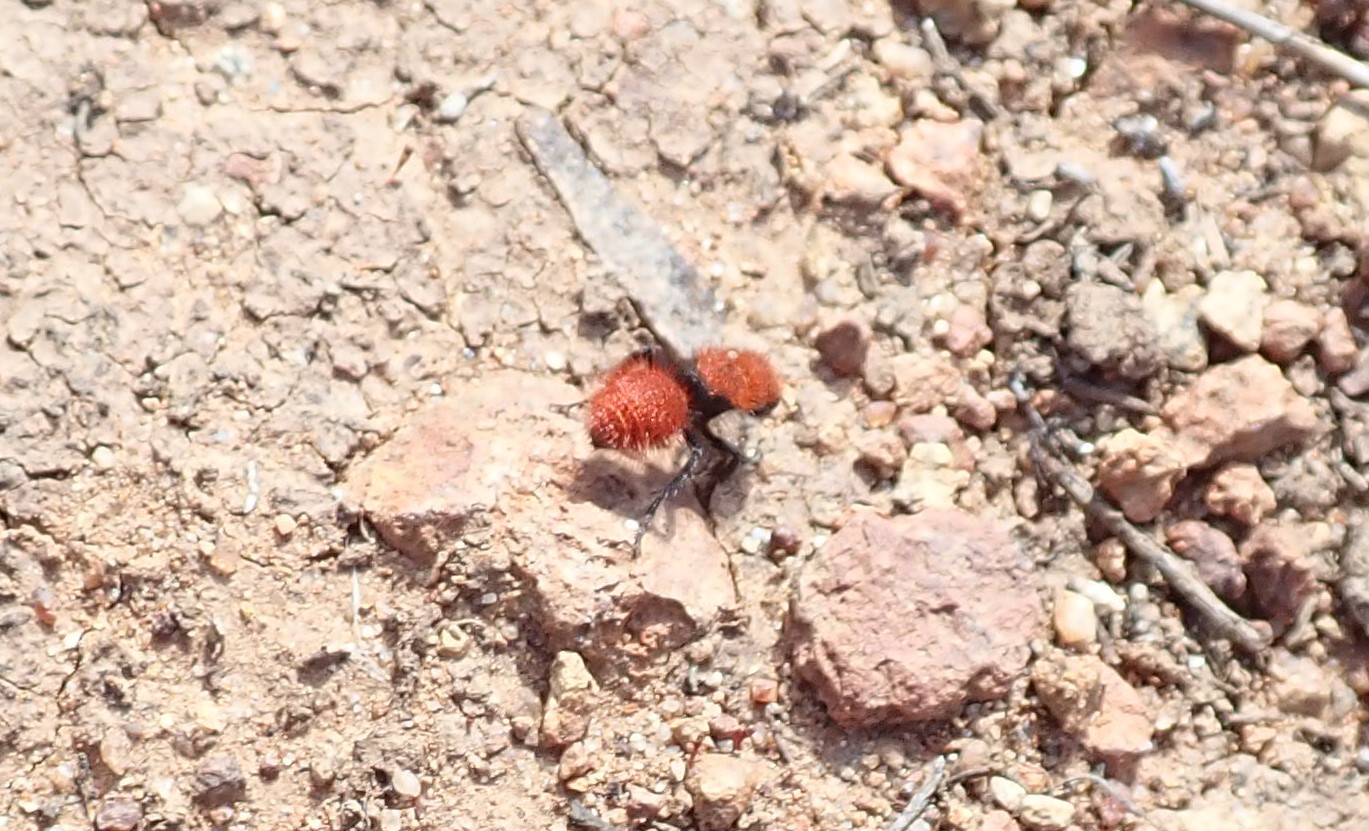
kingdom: Animalia
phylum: Arthropoda
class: Insecta
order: Hymenoptera
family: Mutillidae
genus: Dasymutilla
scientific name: Dasymutilla
